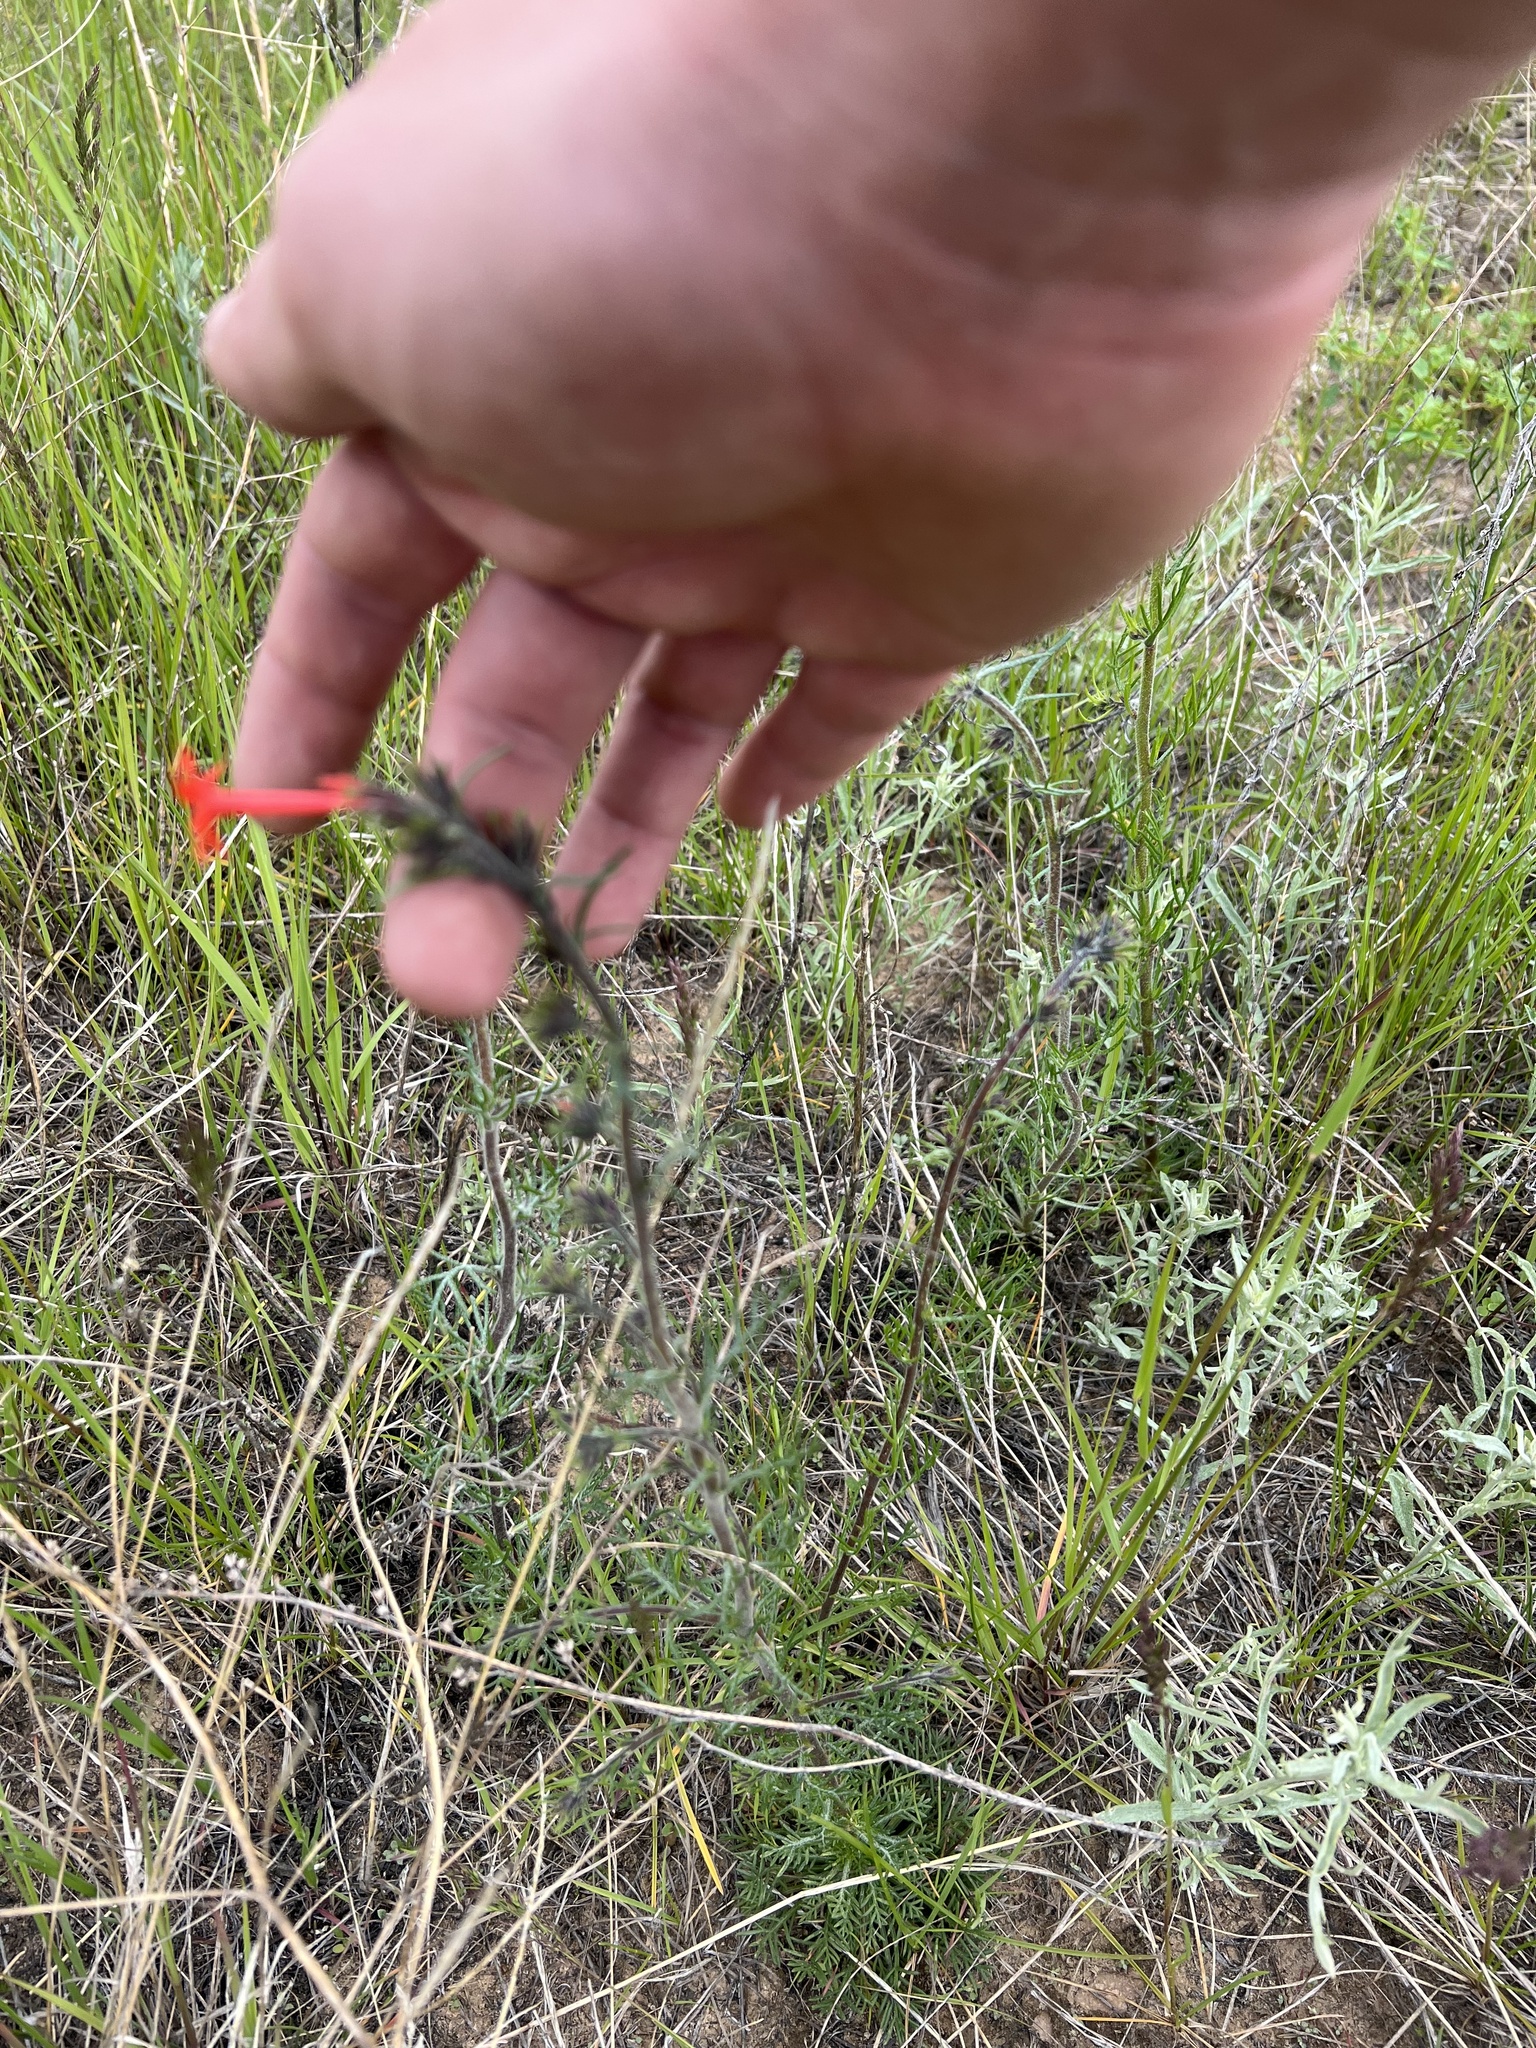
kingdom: Plantae
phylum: Tracheophyta
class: Magnoliopsida
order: Ericales
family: Polemoniaceae
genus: Ipomopsis
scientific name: Ipomopsis aggregata
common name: Scarlet gilia
